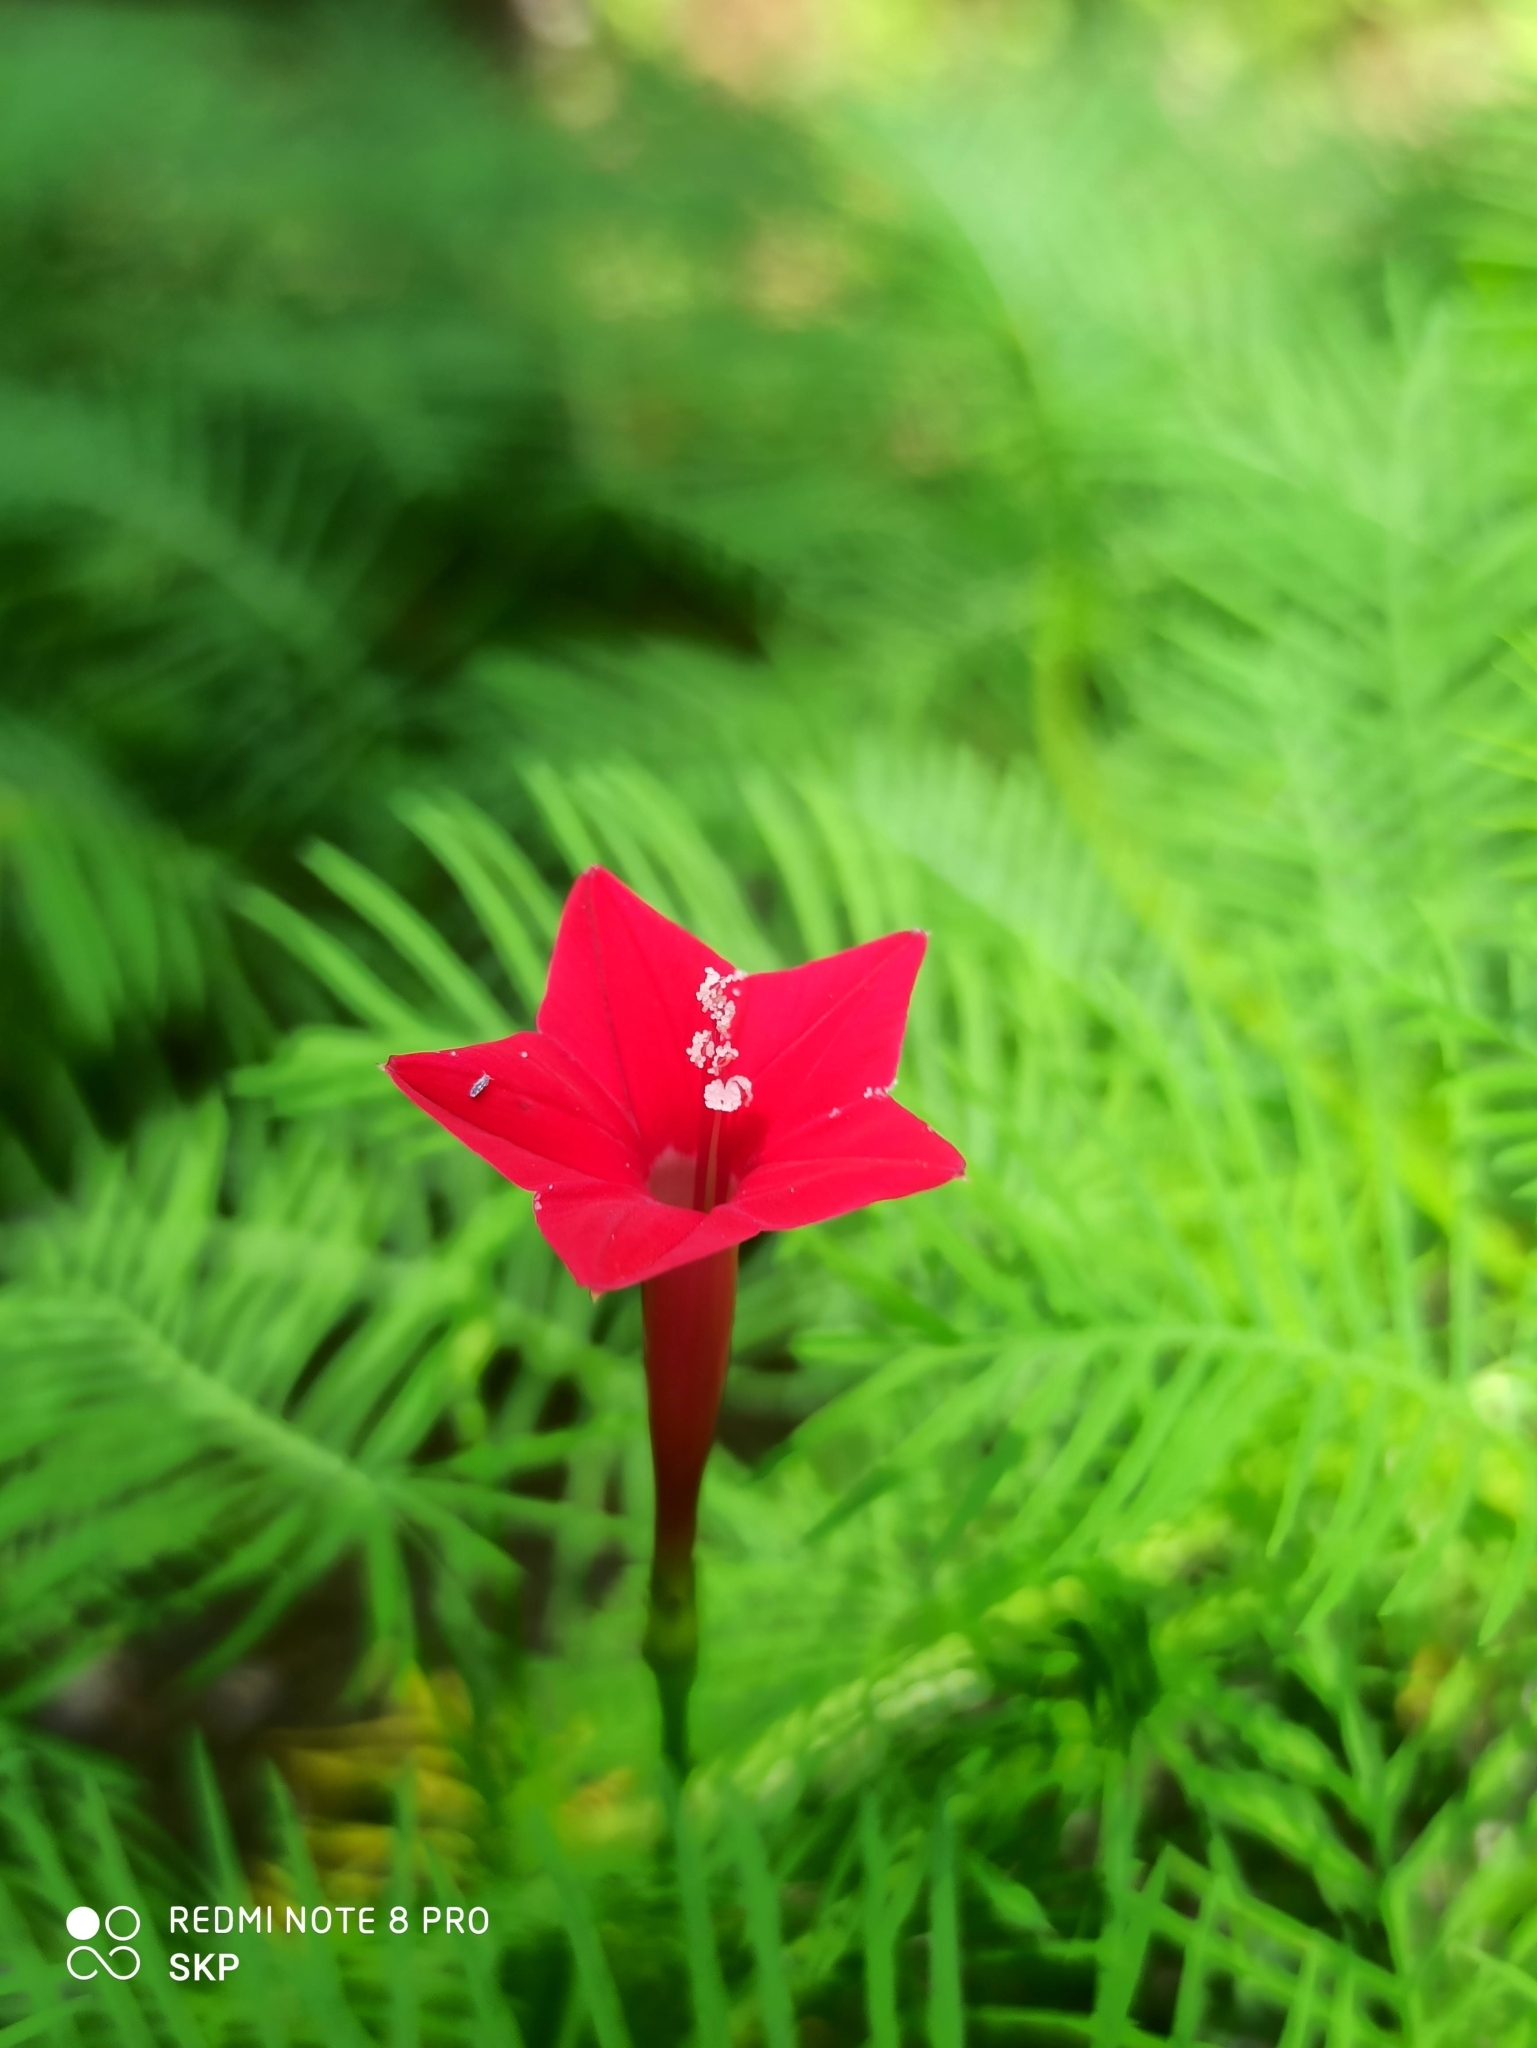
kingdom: Plantae
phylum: Tracheophyta
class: Magnoliopsida
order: Solanales
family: Convolvulaceae
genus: Ipomoea
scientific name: Ipomoea quamoclit
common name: Cypress vine
